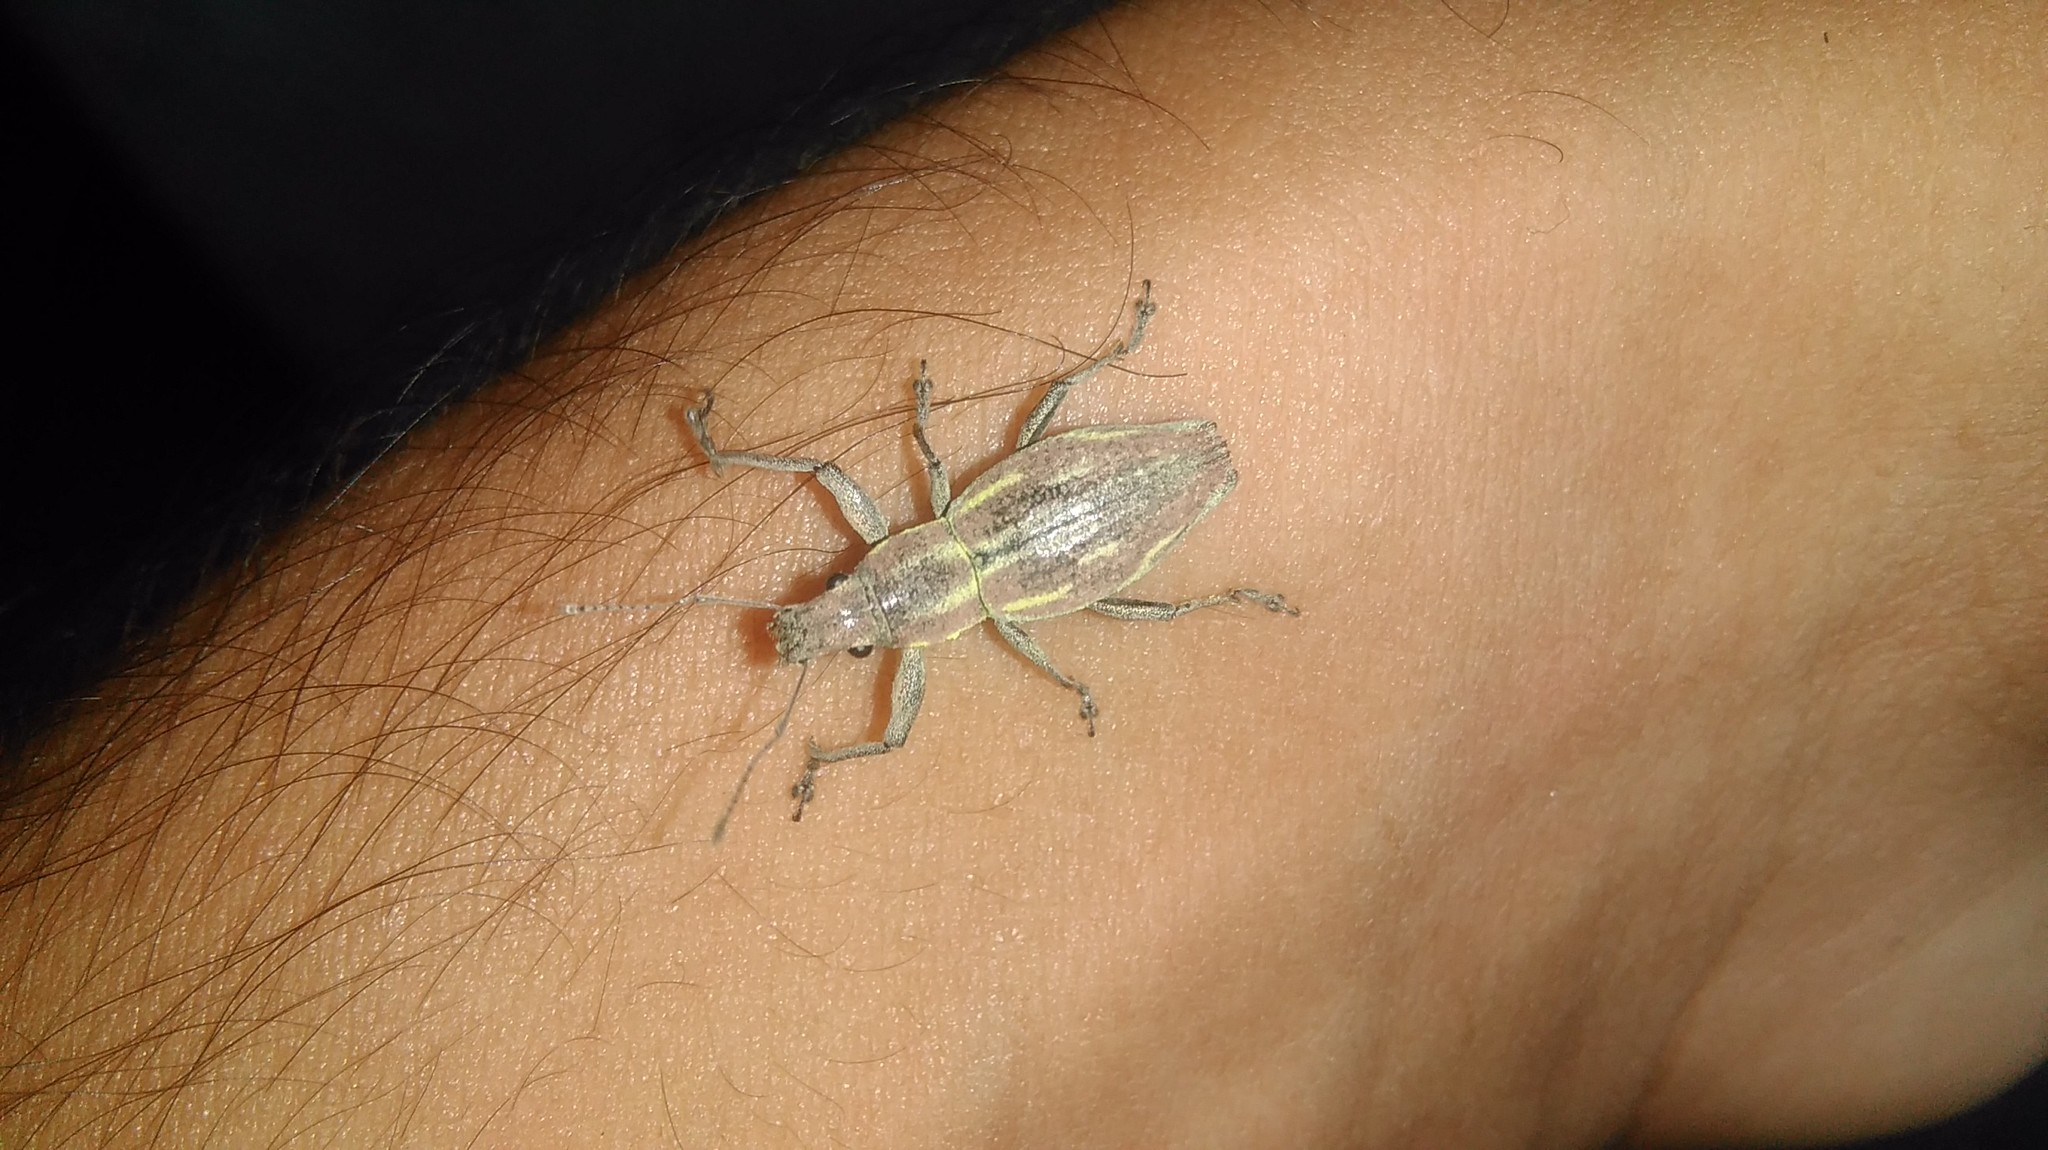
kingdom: Animalia
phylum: Arthropoda
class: Insecta
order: Coleoptera
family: Curculionidae
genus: Naupactus
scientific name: Naupactus xanthographus
